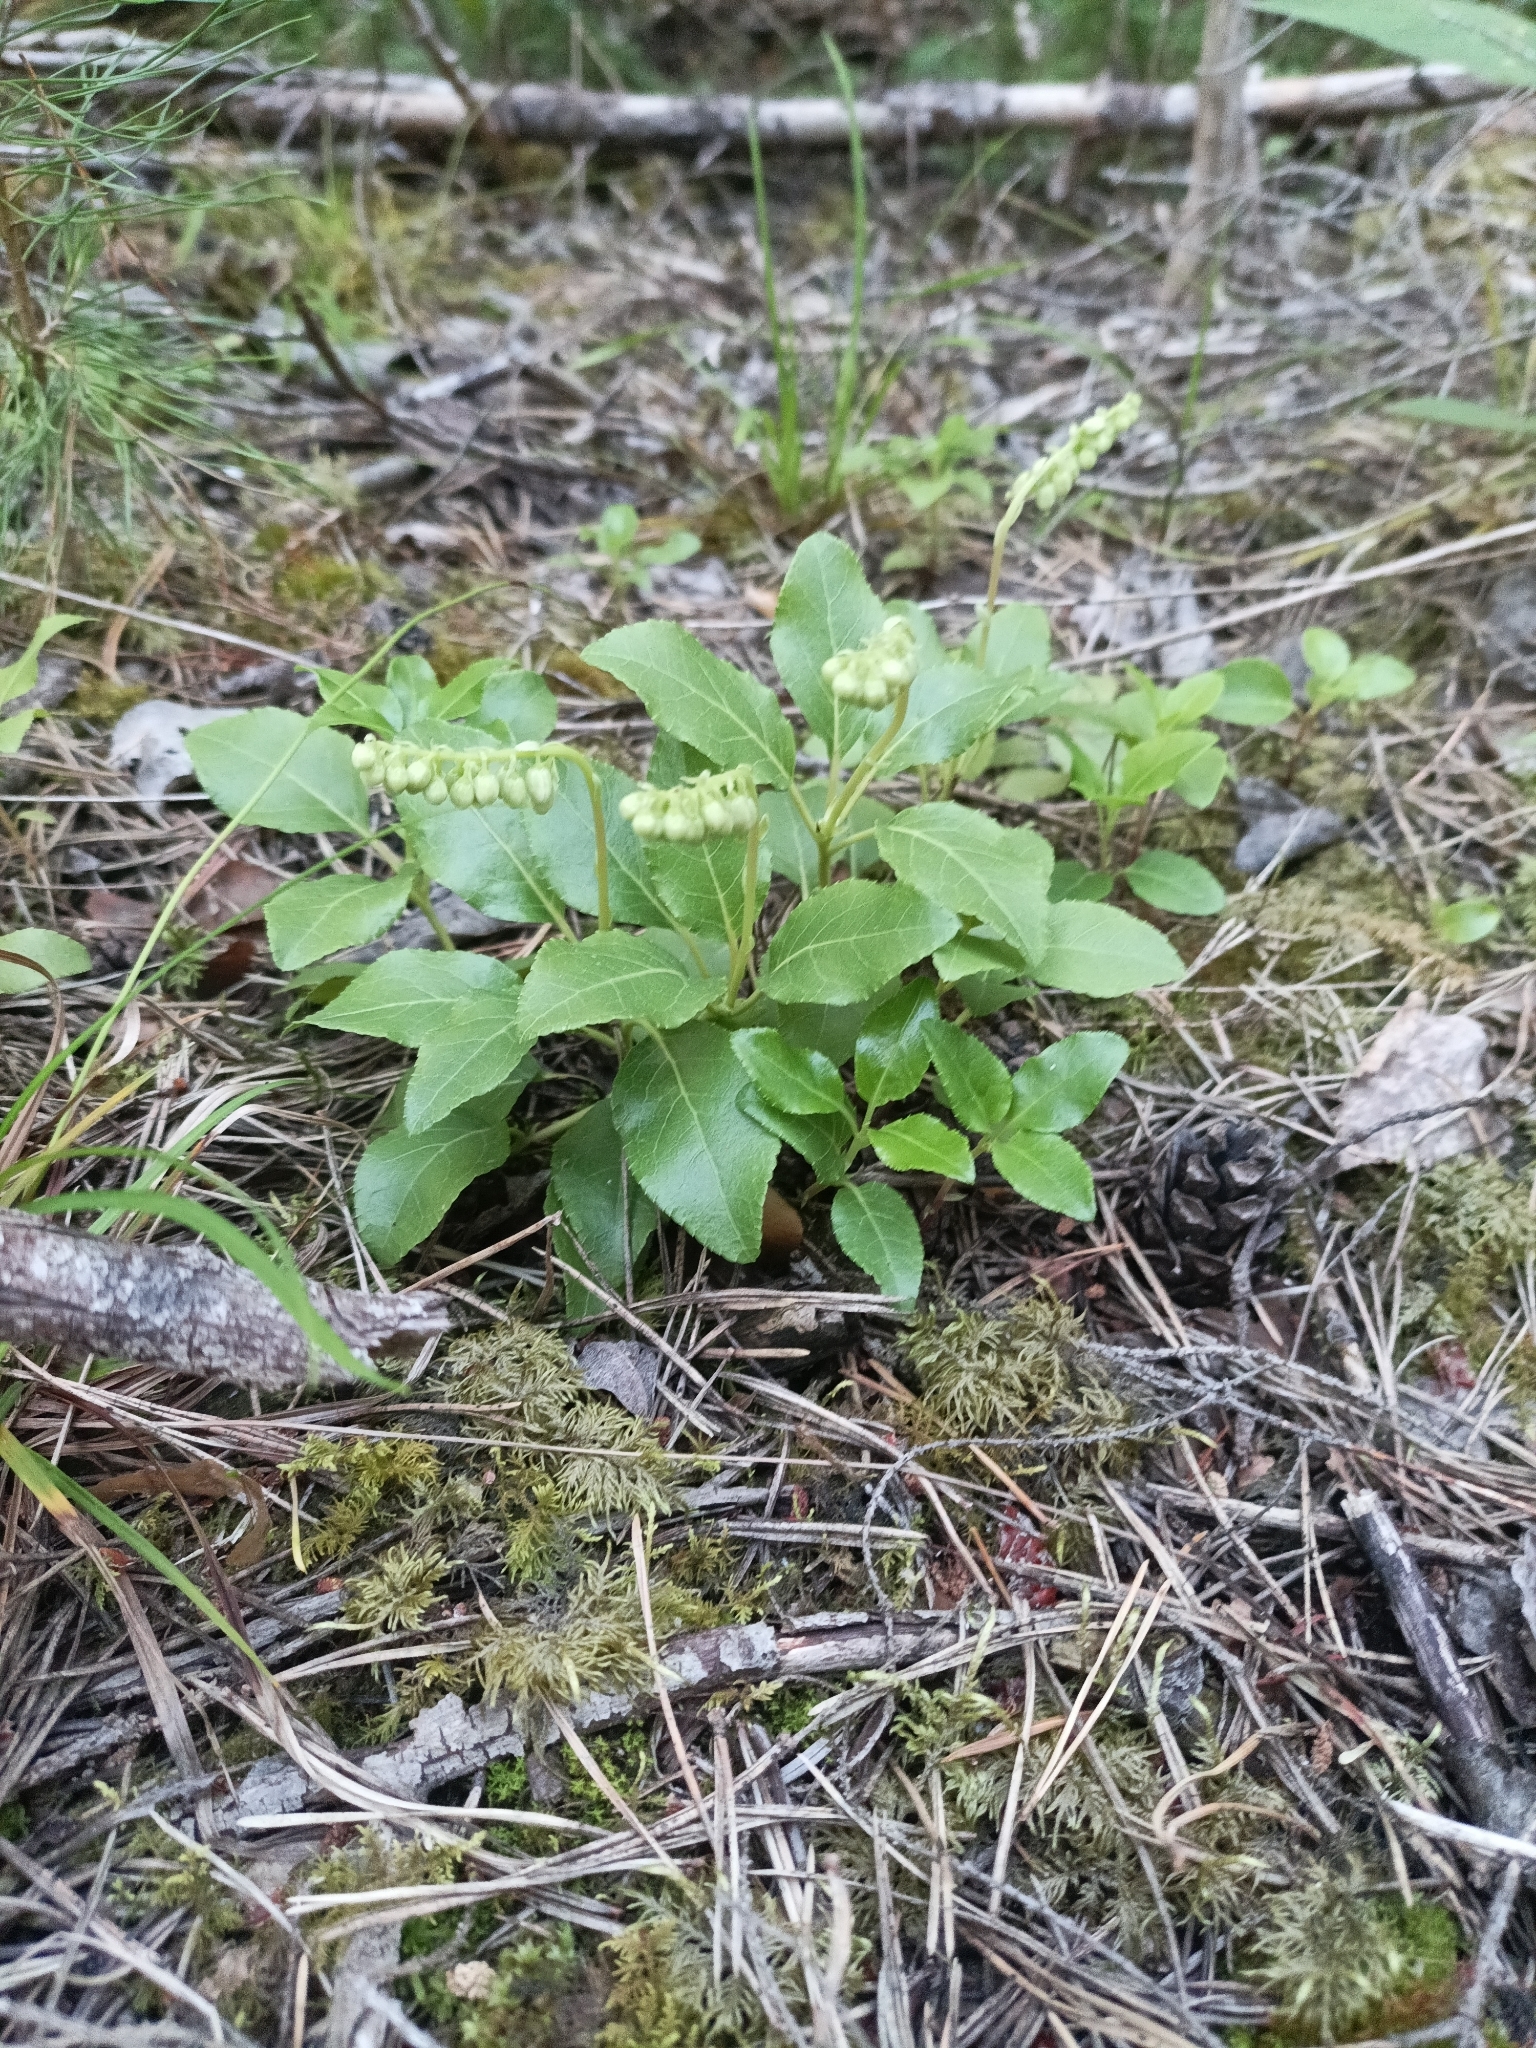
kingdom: Plantae
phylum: Tracheophyta
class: Magnoliopsida
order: Ericales
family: Ericaceae
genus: Orthilia
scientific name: Orthilia secunda
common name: One-sided orthilia
